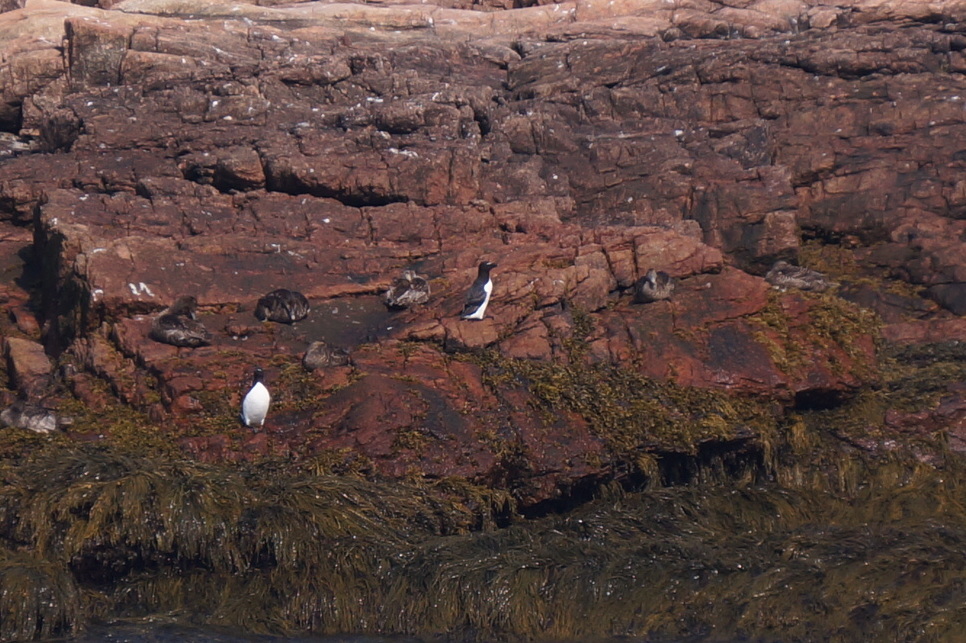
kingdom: Animalia
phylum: Chordata
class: Aves
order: Anseriformes
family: Anatidae
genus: Somateria
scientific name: Somateria mollissima
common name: Common eider
